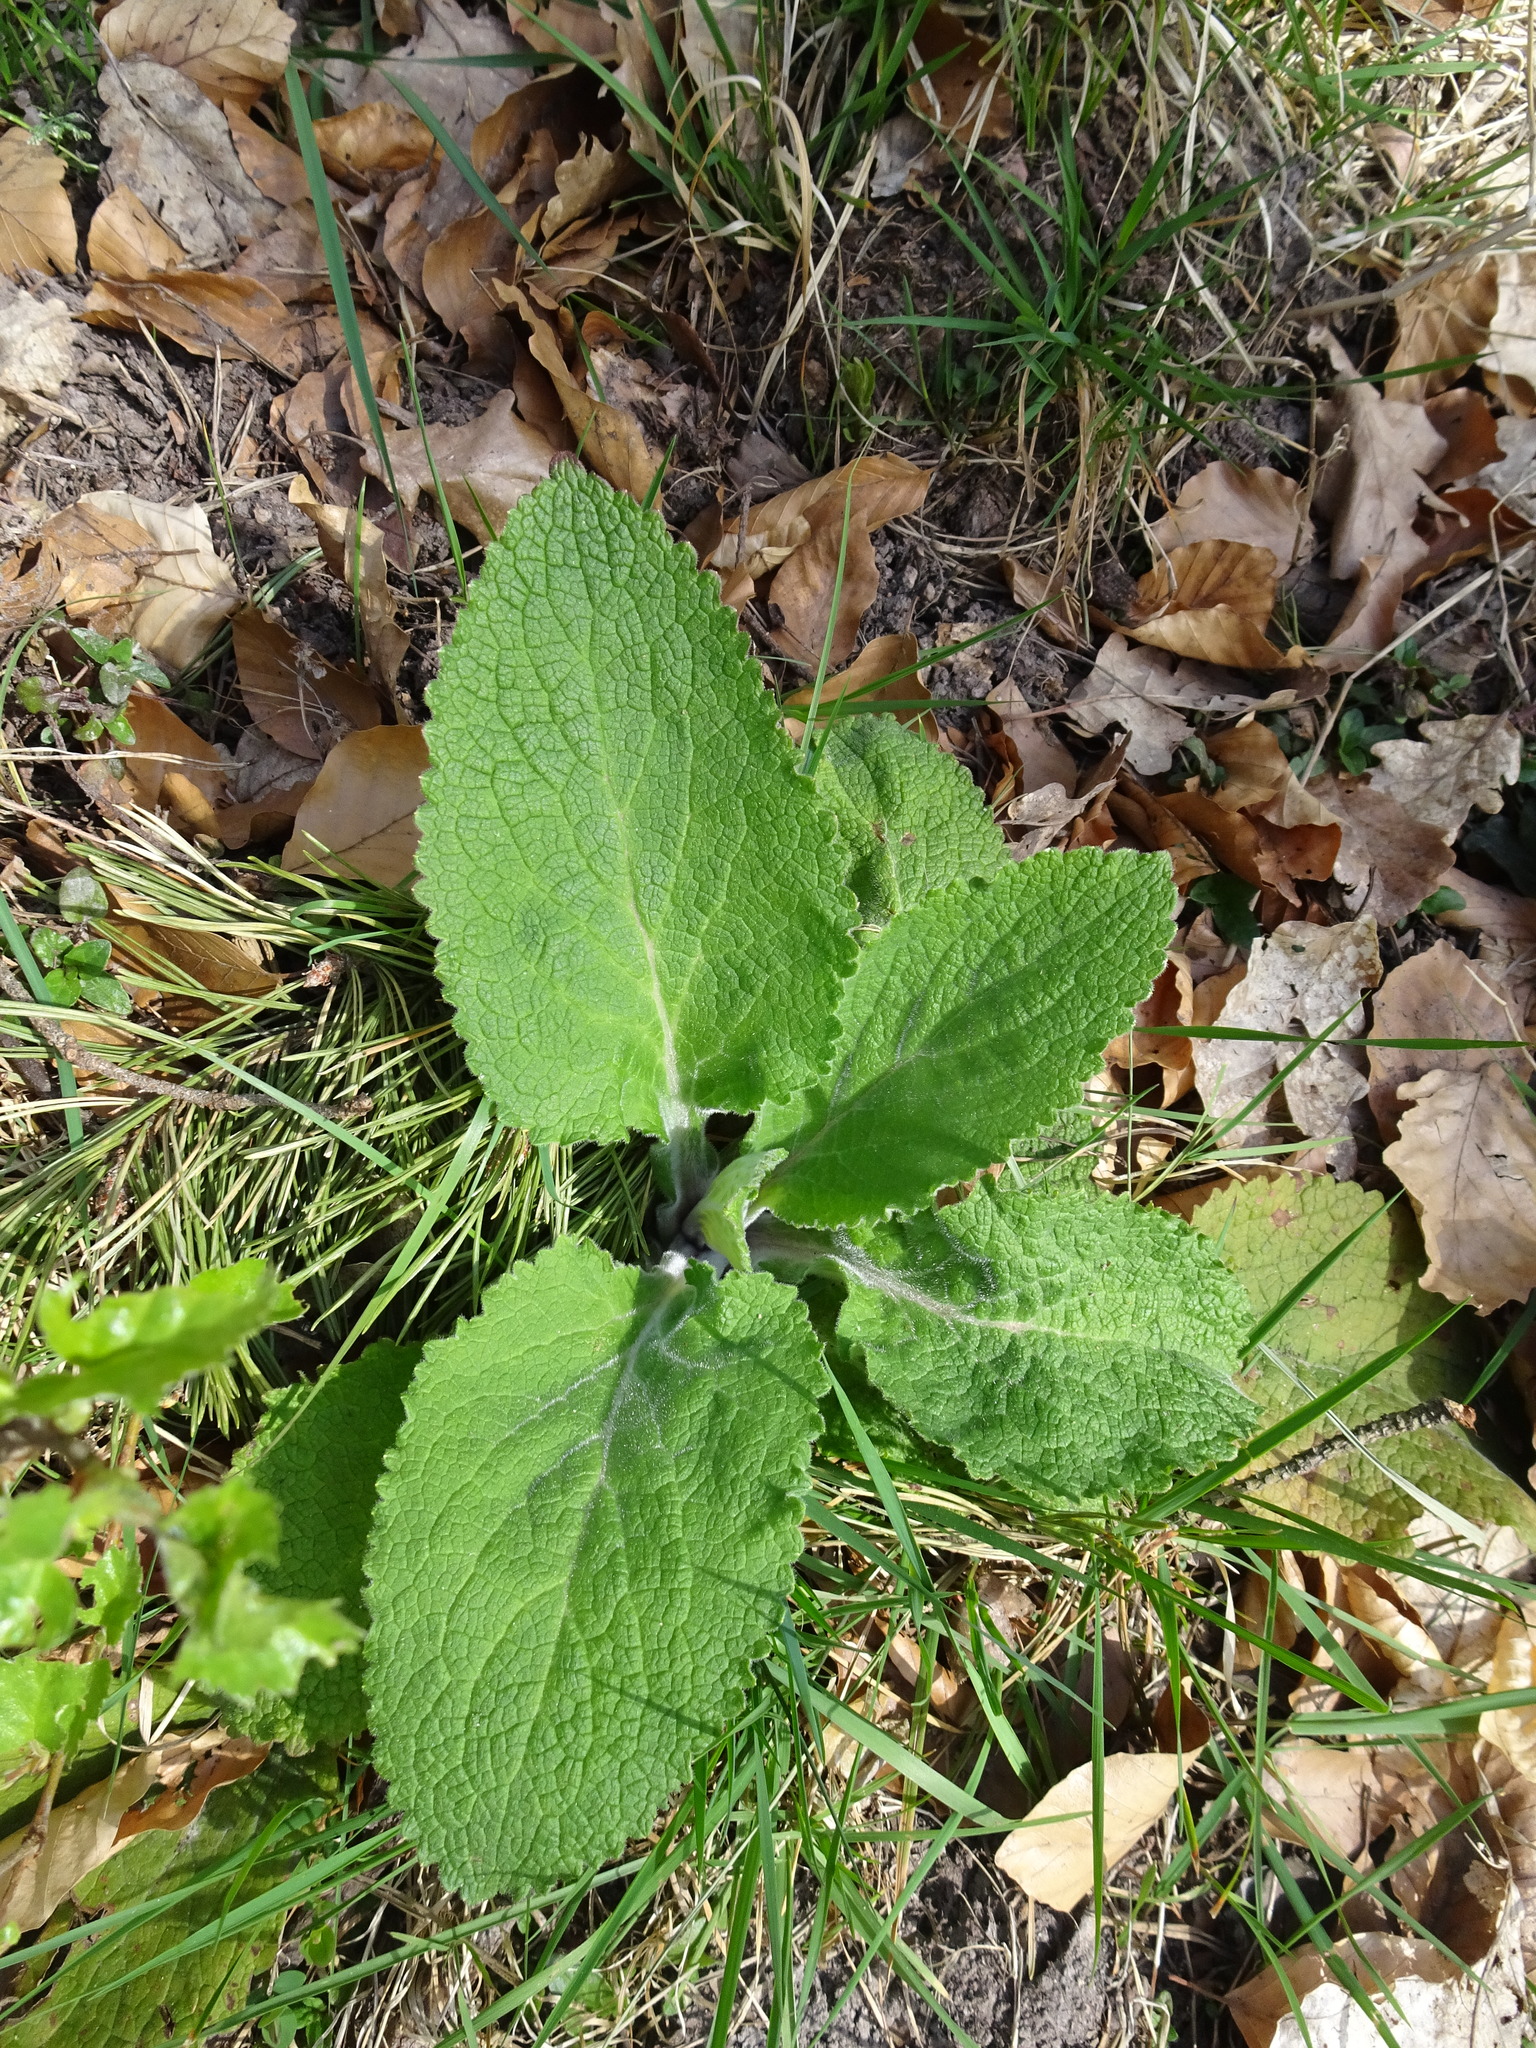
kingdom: Plantae
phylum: Tracheophyta
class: Magnoliopsida
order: Lamiales
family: Plantaginaceae
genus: Digitalis
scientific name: Digitalis purpurea
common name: Foxglove
